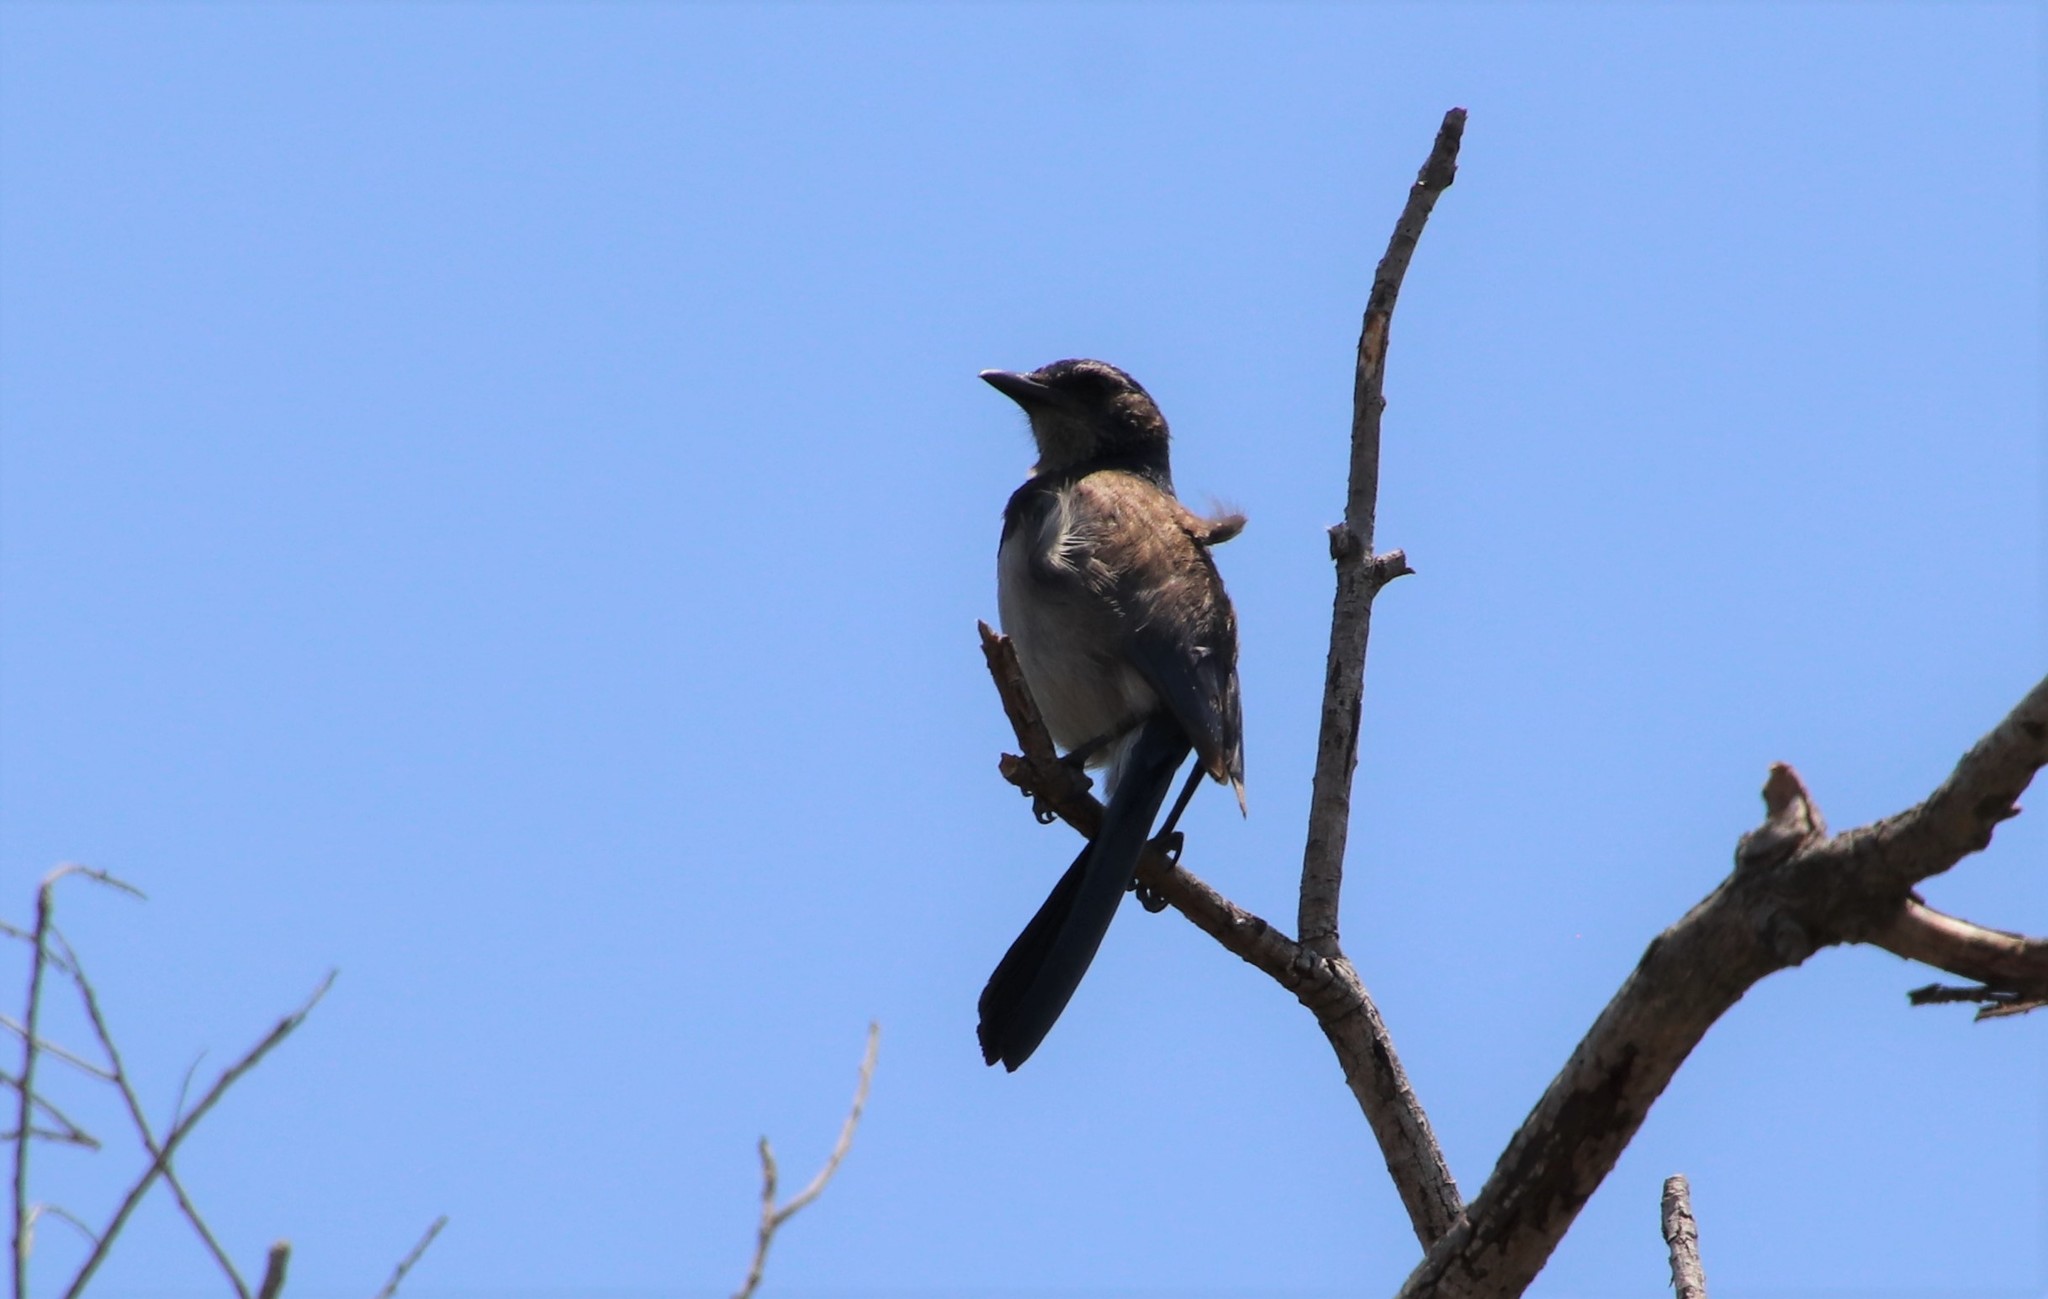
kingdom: Animalia
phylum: Chordata
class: Aves
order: Passeriformes
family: Corvidae
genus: Aphelocoma
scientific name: Aphelocoma californica
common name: California scrub-jay
